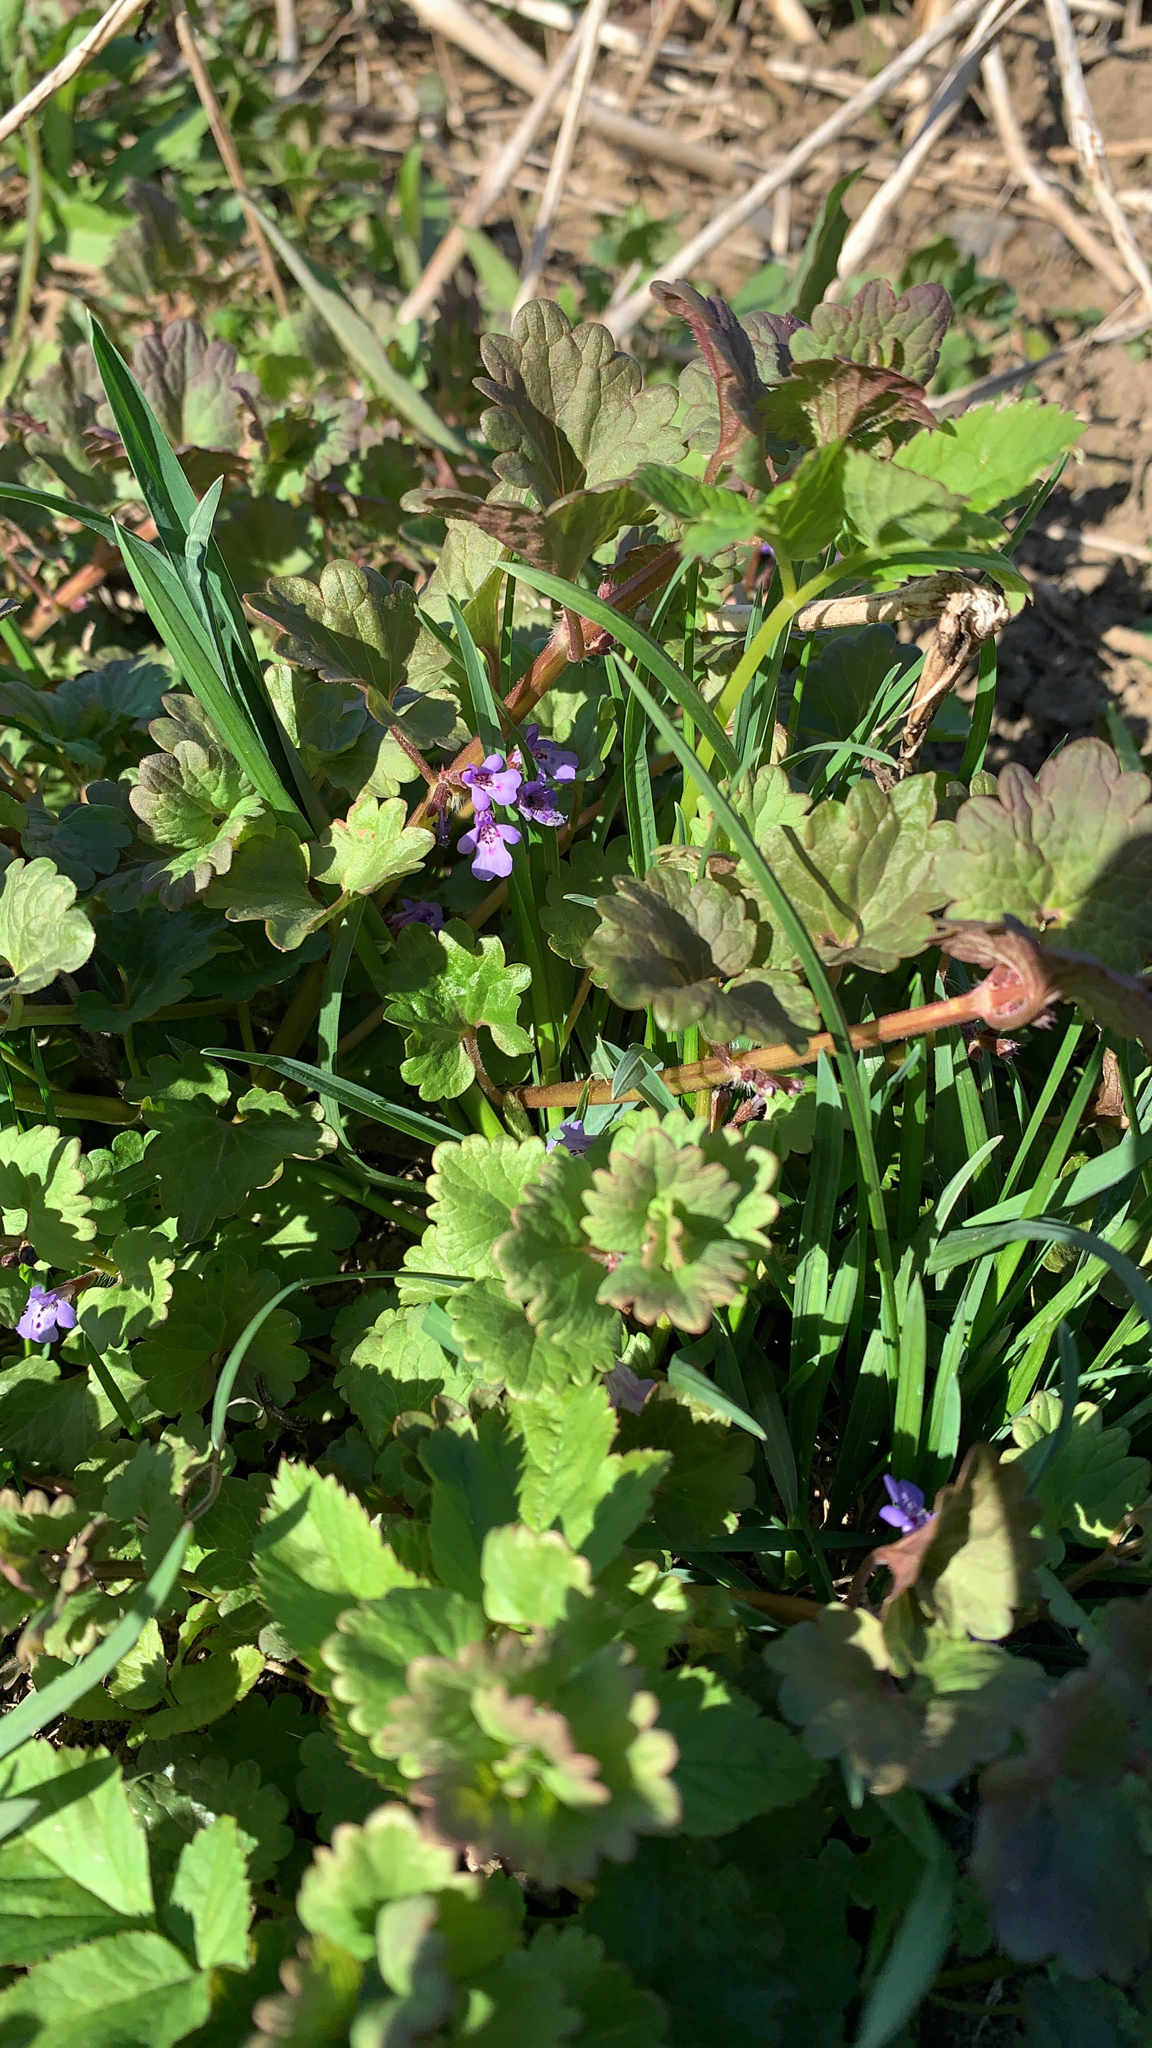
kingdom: Plantae
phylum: Tracheophyta
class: Magnoliopsida
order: Lamiales
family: Lamiaceae
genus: Glechoma
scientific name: Glechoma hederacea
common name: Ground ivy
